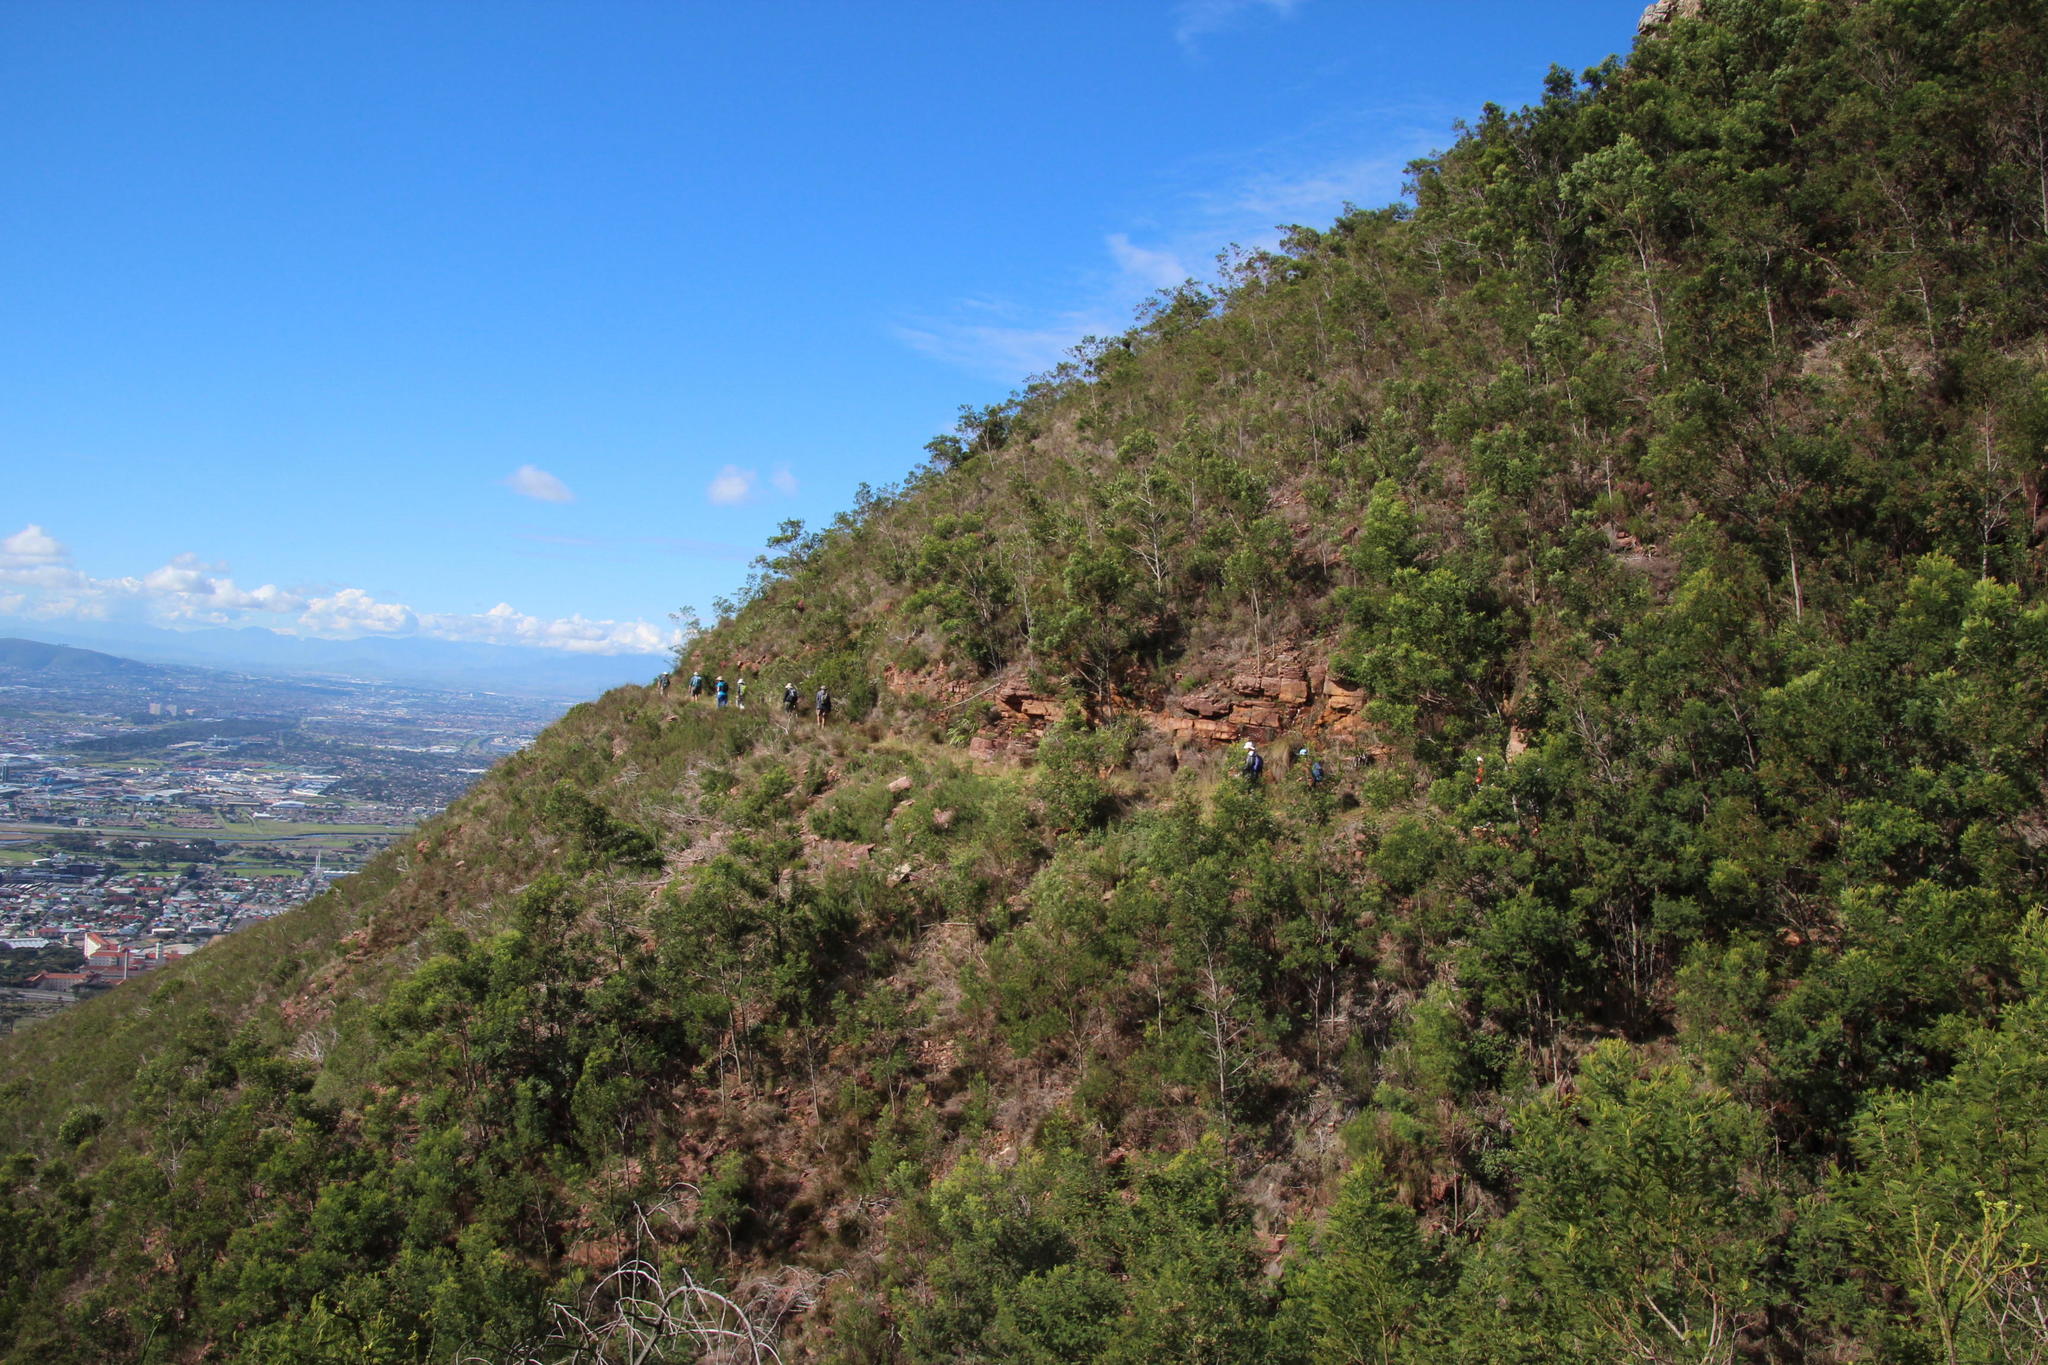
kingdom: Plantae
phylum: Tracheophyta
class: Magnoliopsida
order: Fabales
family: Fabaceae
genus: Acacia
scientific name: Acacia melanoxylon
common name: Blackwood
